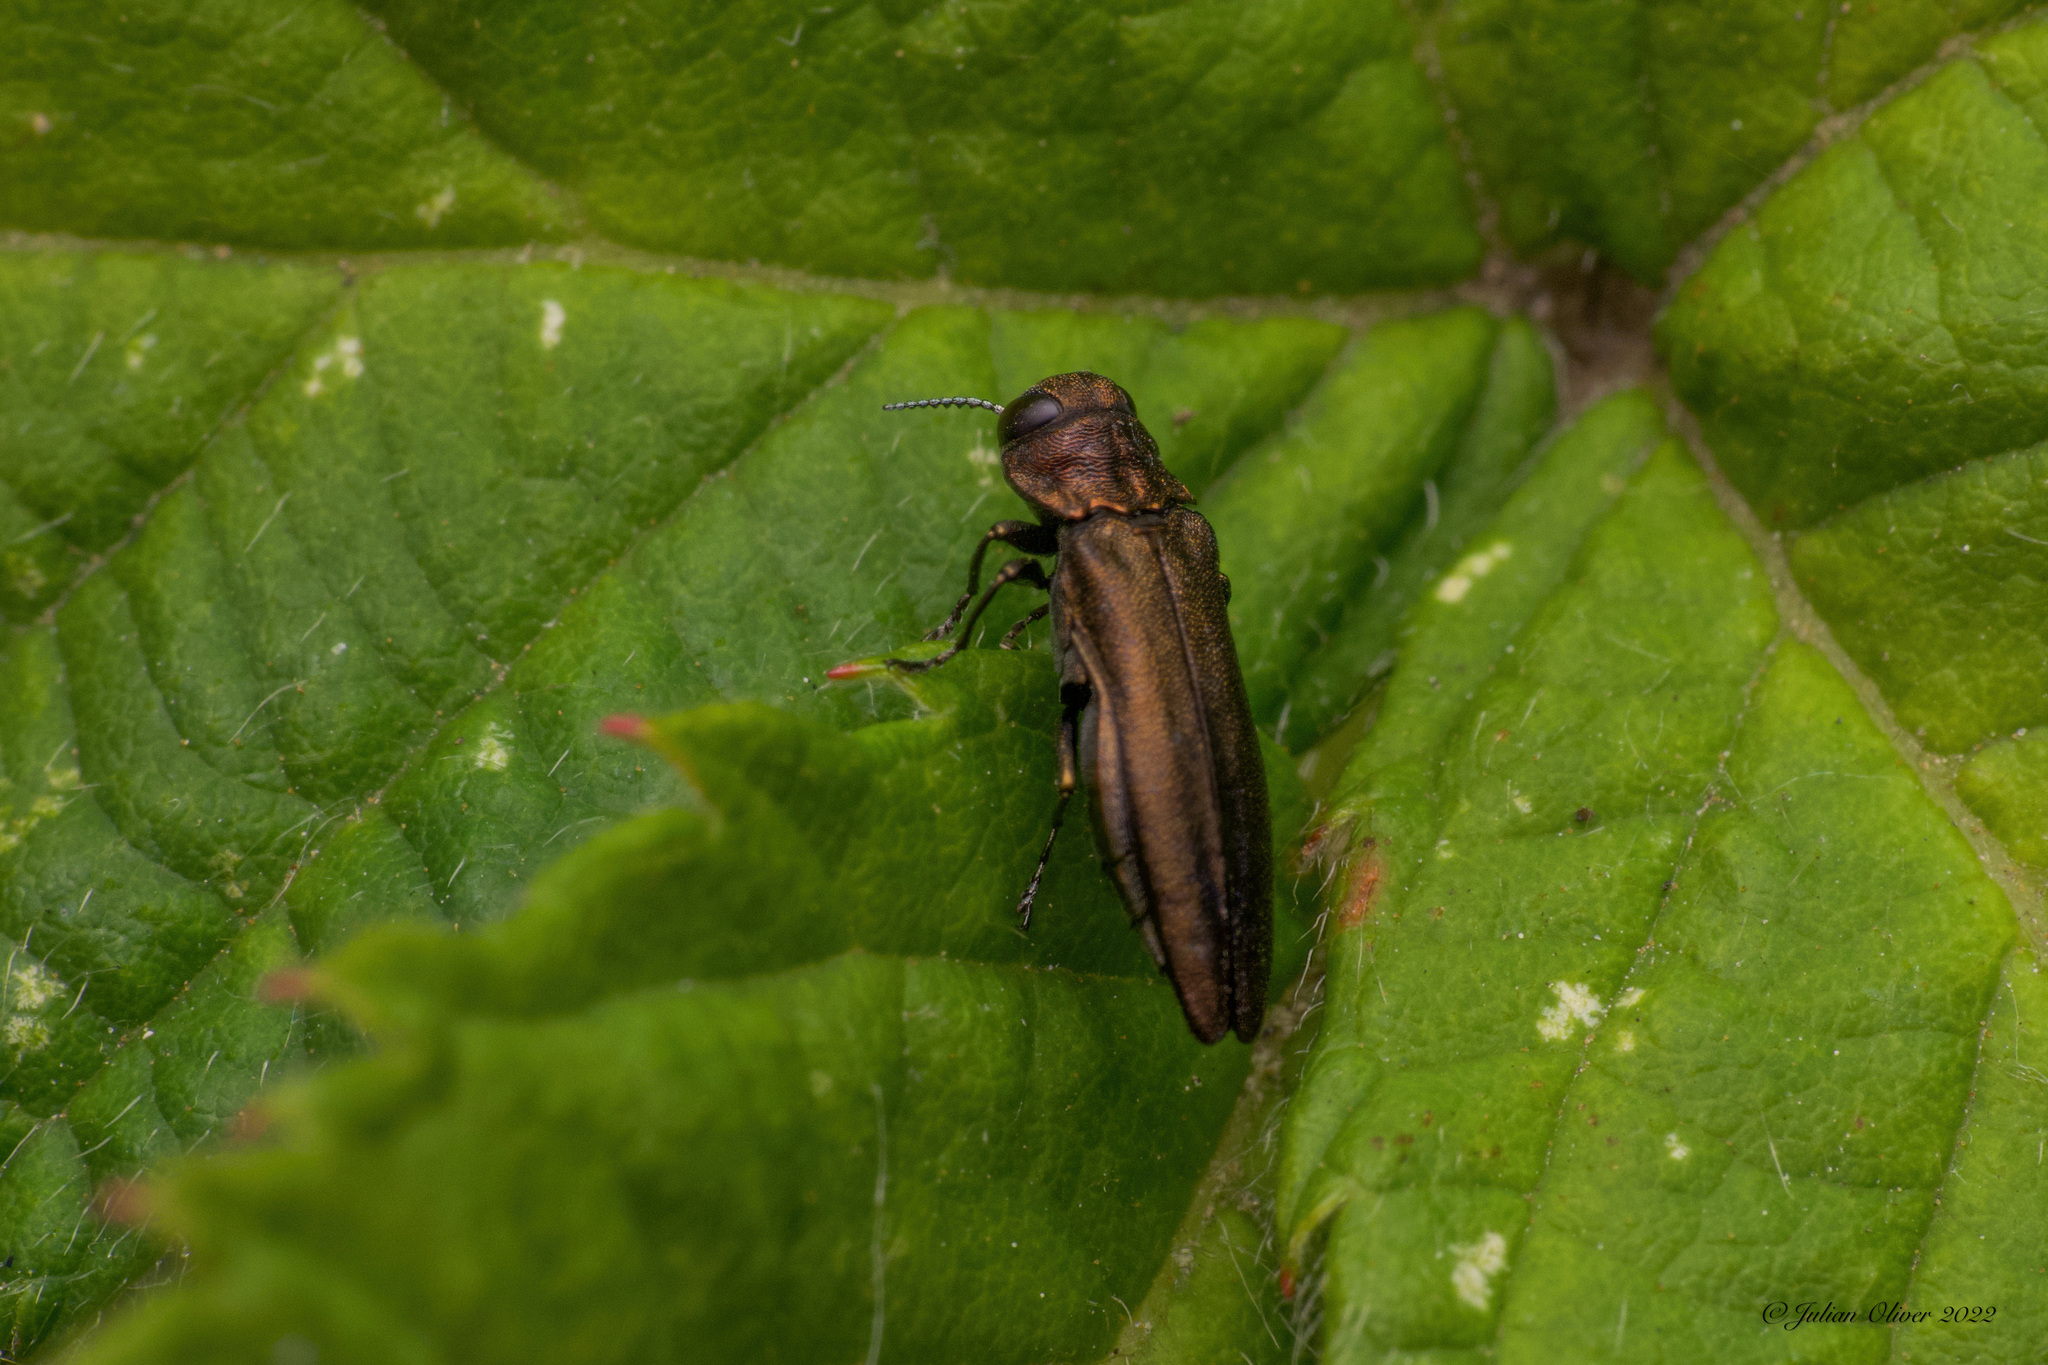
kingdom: Animalia
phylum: Arthropoda
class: Insecta
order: Coleoptera
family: Buprestidae
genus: Agrilus
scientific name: Agrilus cuprescens
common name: Rose stem girdler
